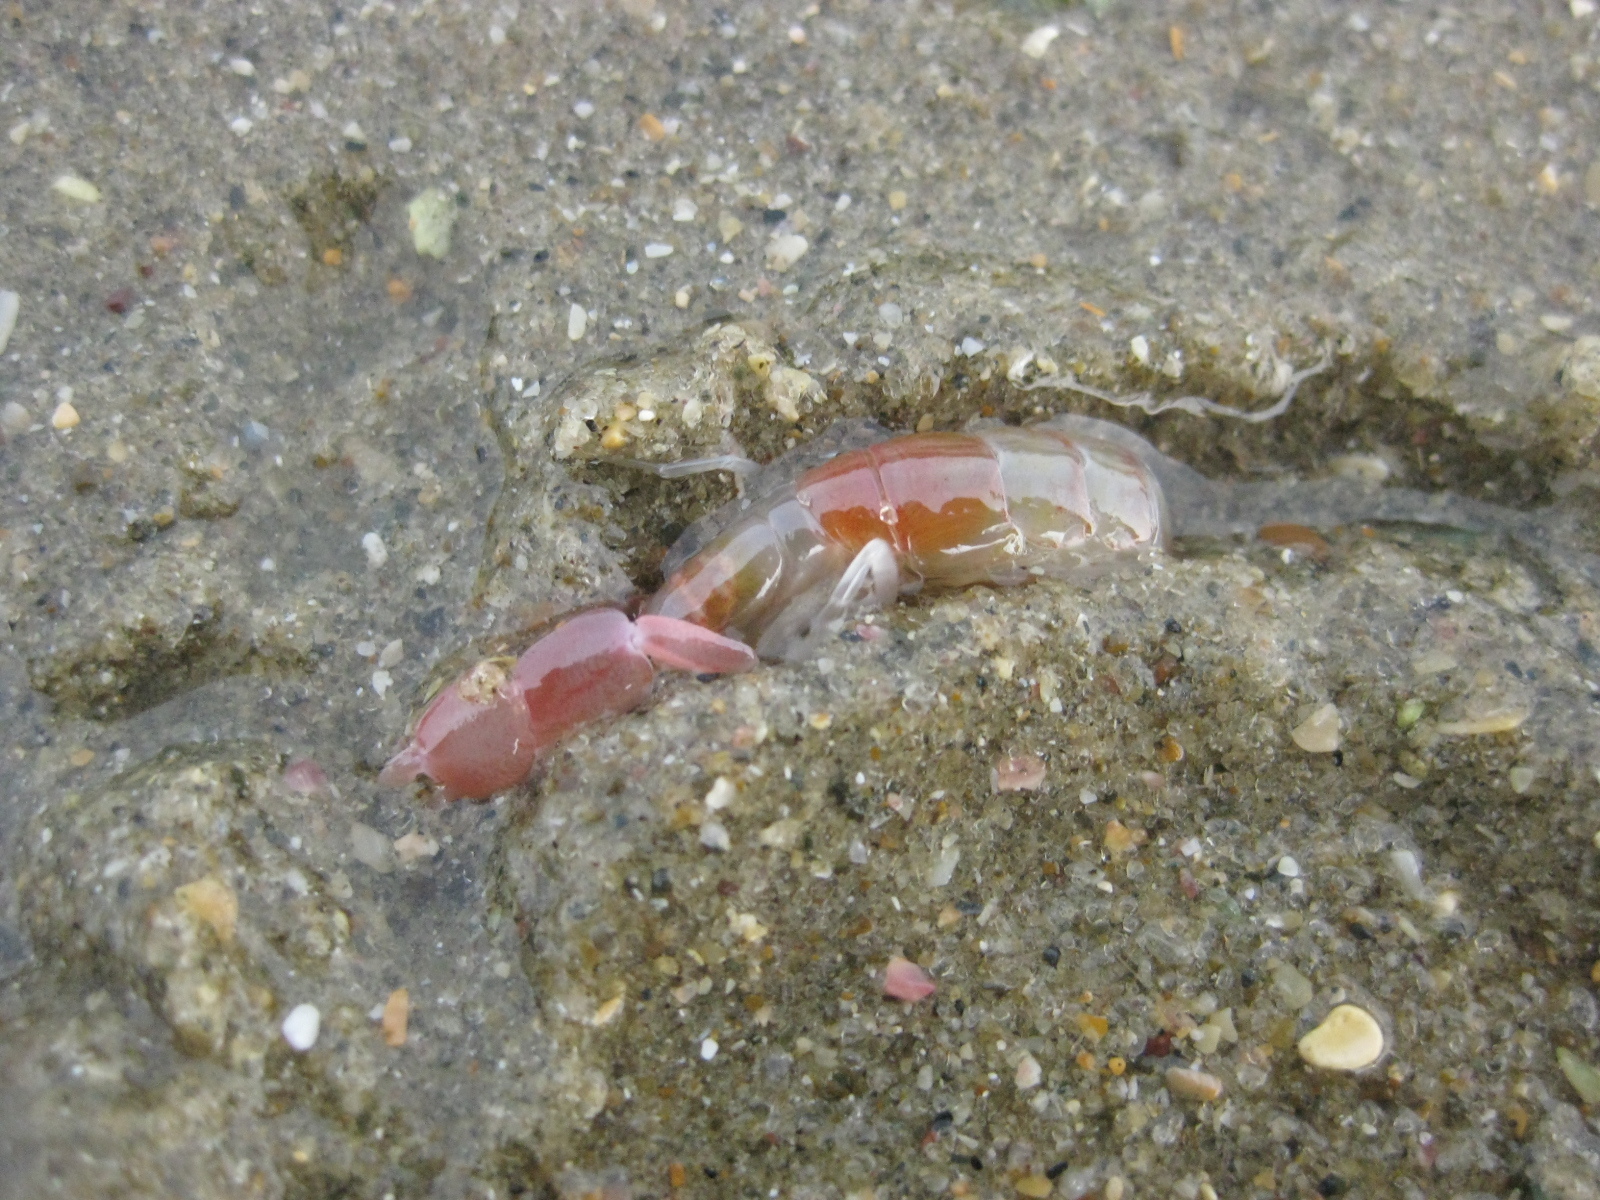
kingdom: Animalia
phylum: Arthropoda
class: Malacostraca
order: Decapoda
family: Callianassidae
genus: Filhollianassa
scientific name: Filhollianassa filholi
